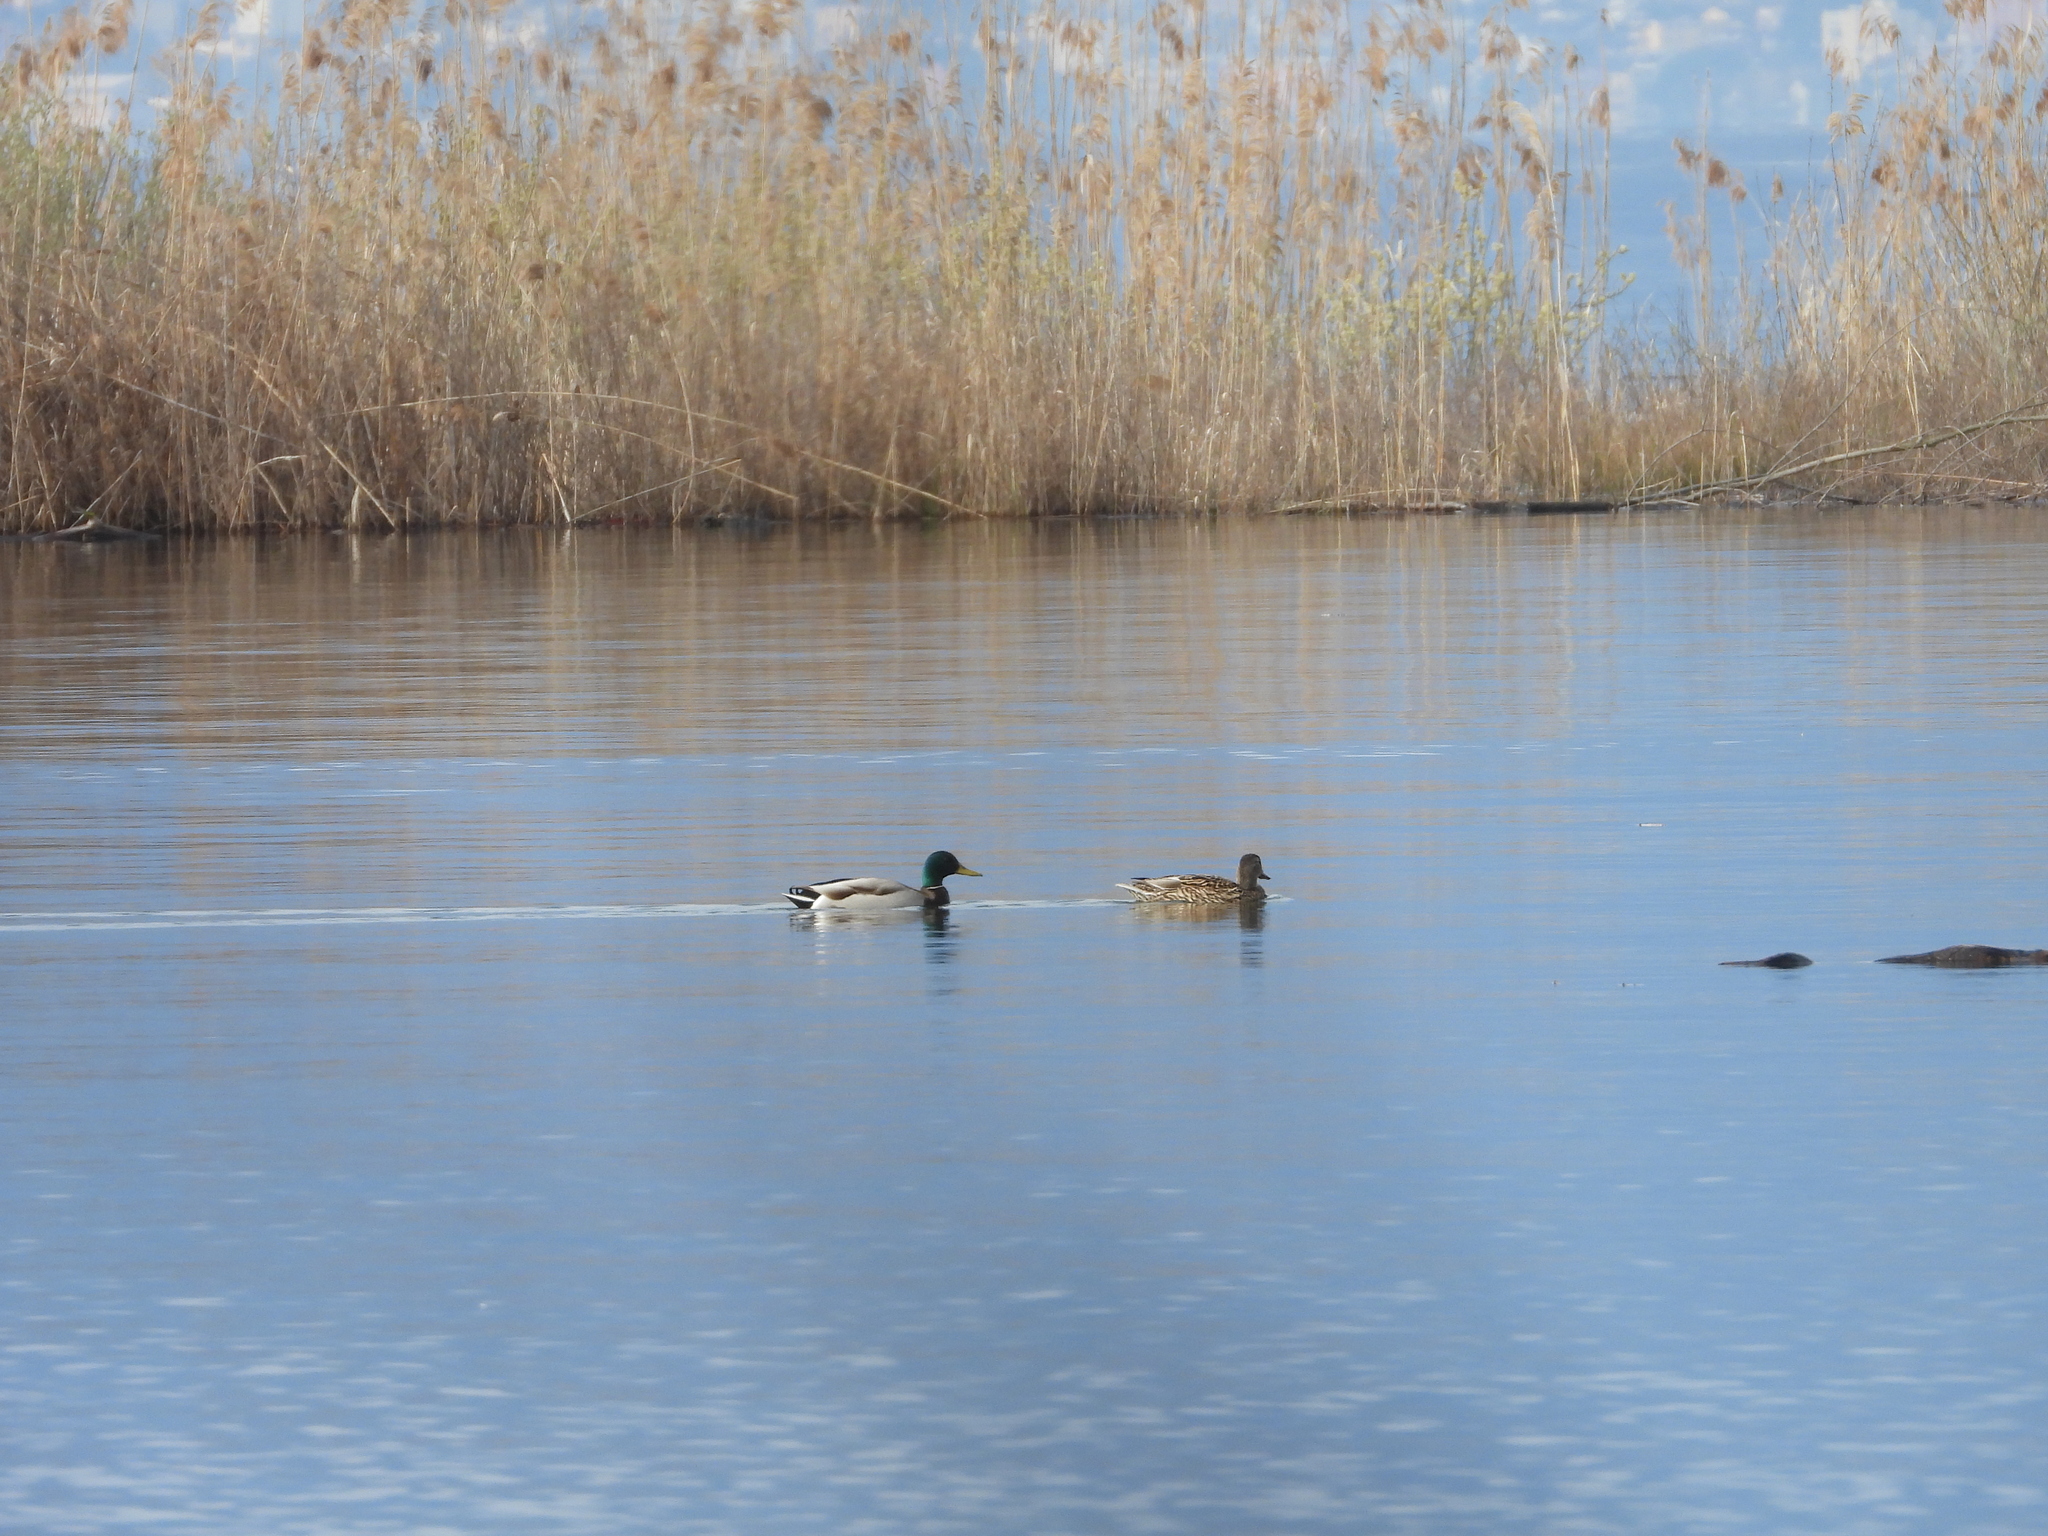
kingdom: Animalia
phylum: Chordata
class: Aves
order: Anseriformes
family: Anatidae
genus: Anas
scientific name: Anas platyrhynchos
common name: Mallard
